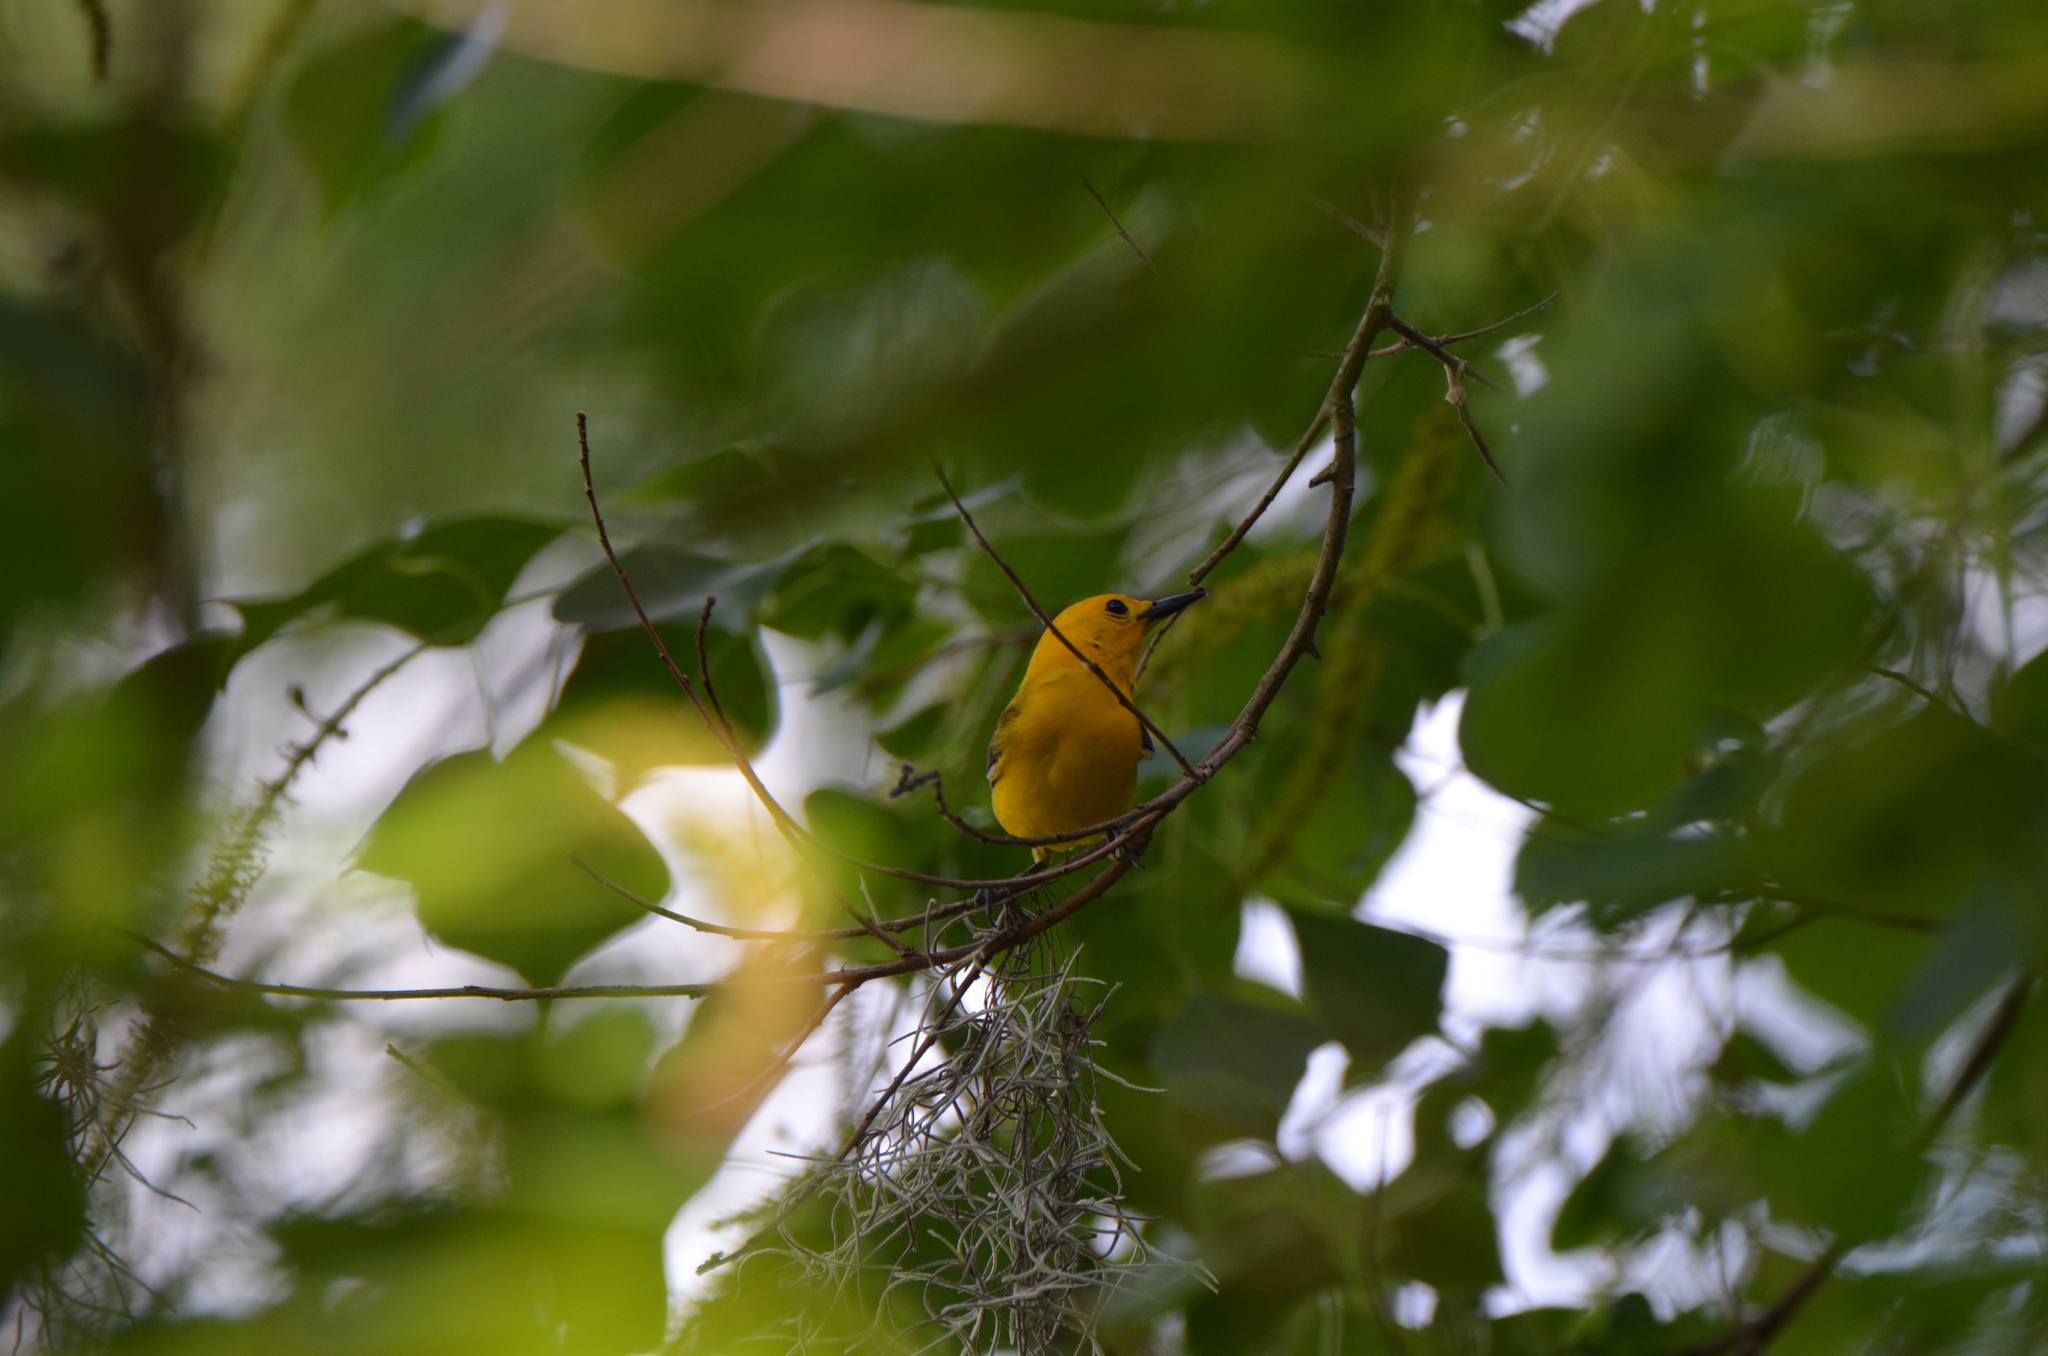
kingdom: Animalia
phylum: Chordata
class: Aves
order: Passeriformes
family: Parulidae
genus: Protonotaria
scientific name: Protonotaria citrea
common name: Prothonotary warbler
